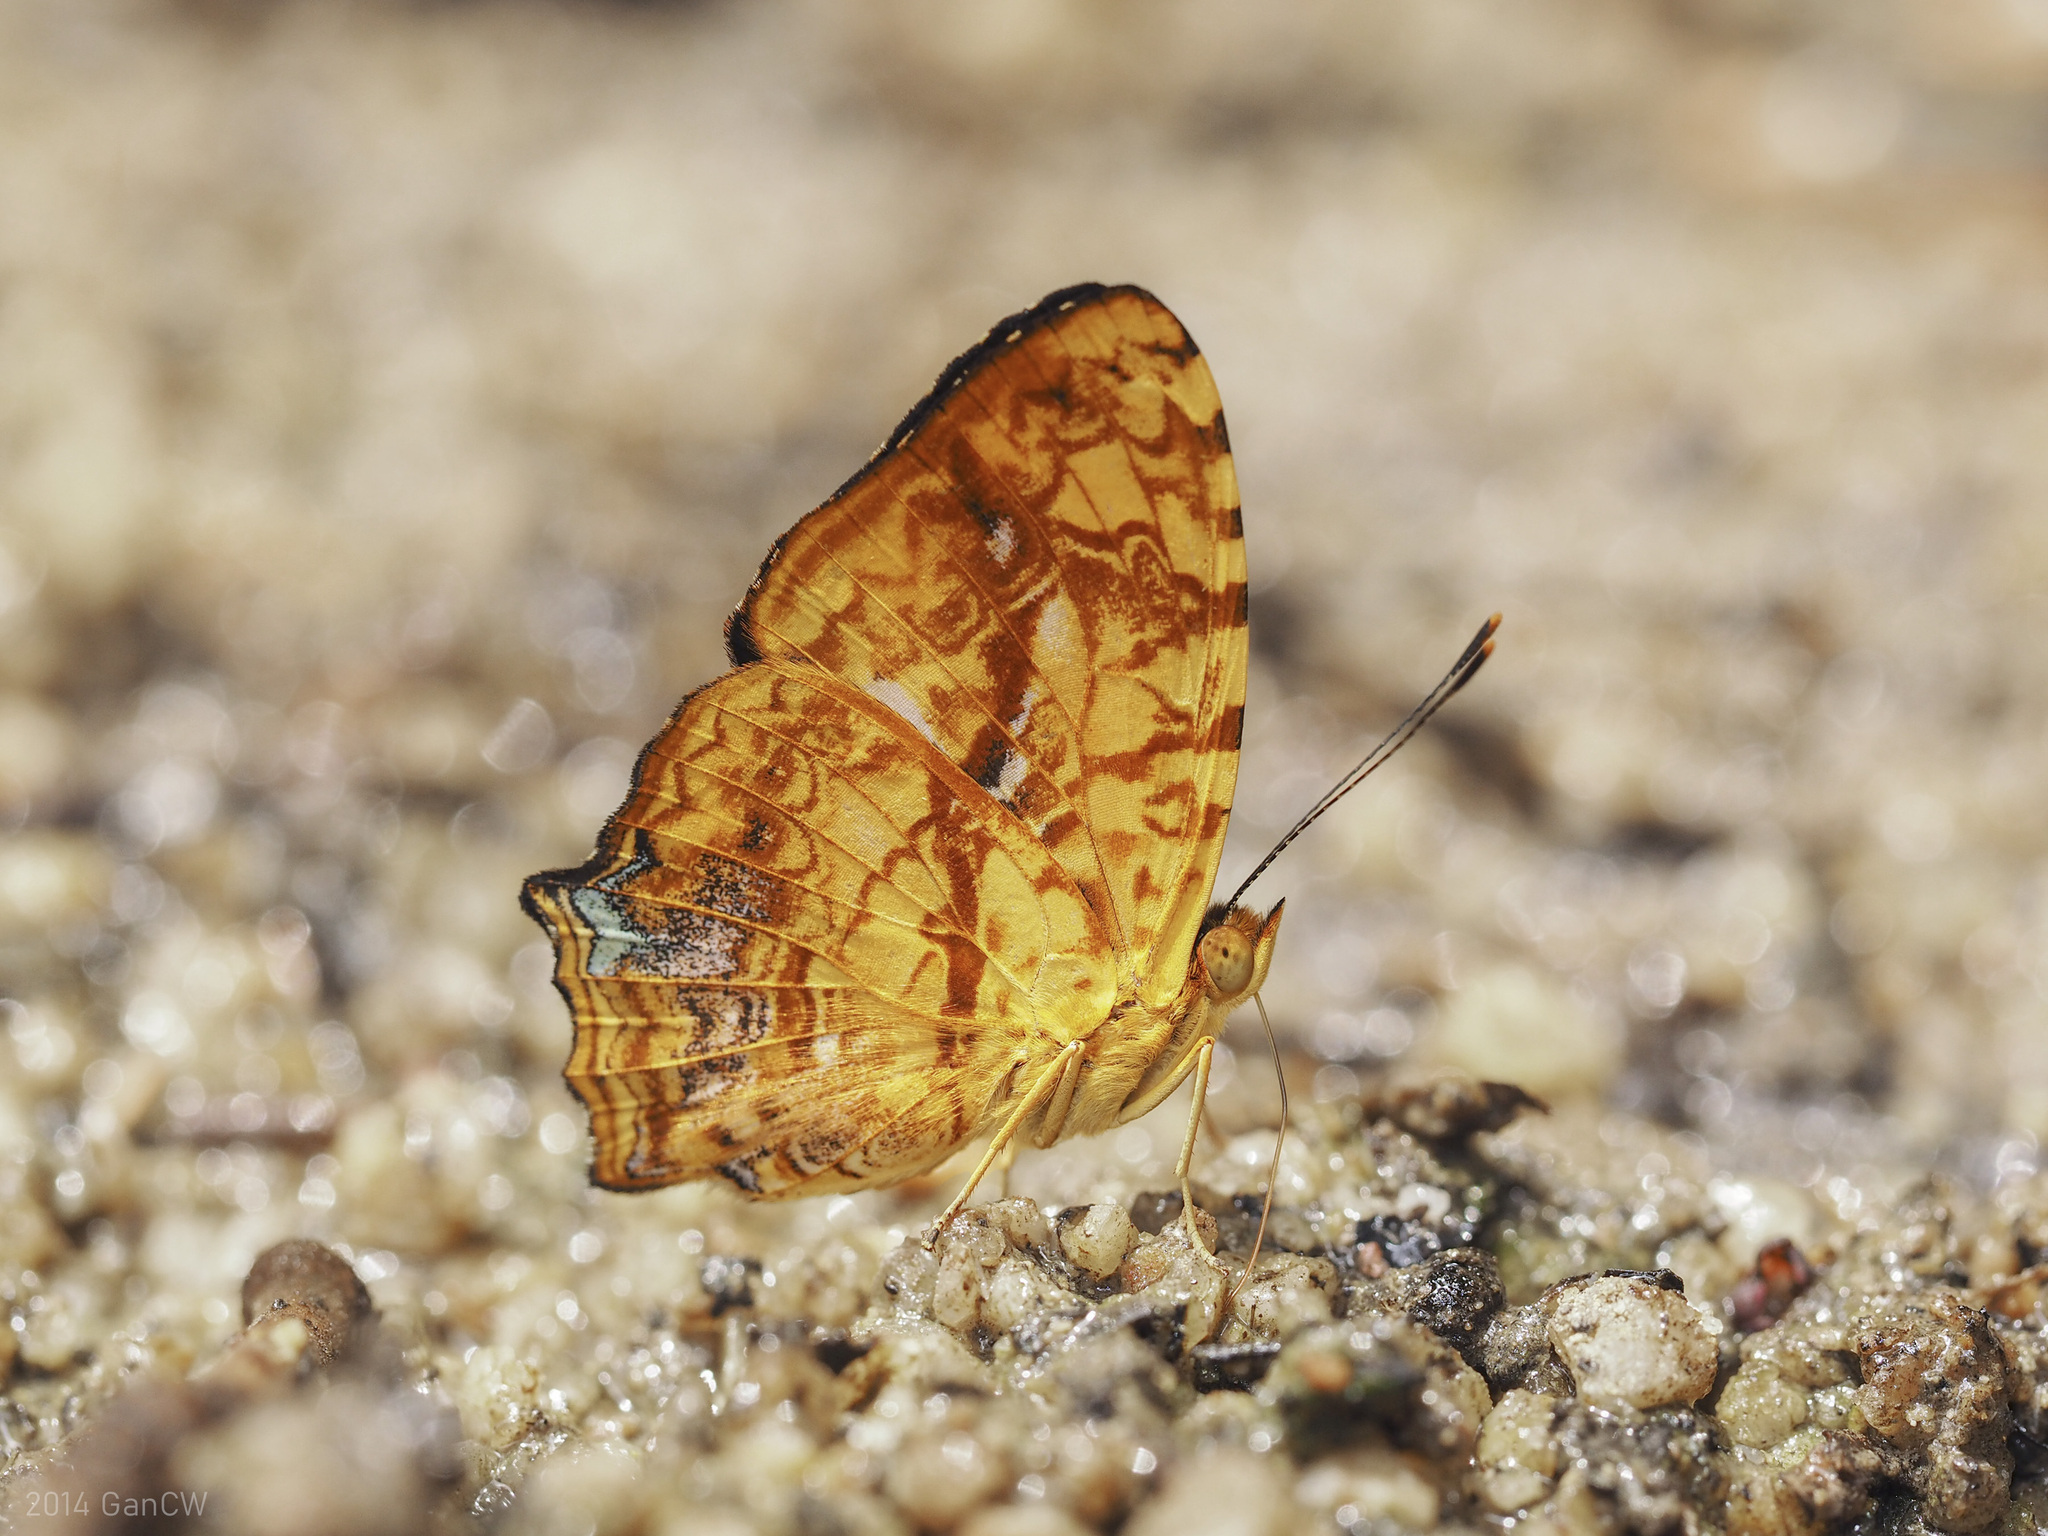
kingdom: Animalia
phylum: Arthropoda
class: Insecta
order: Lepidoptera
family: Nymphalidae
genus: Symbrenthia
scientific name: Symbrenthia hypselis
